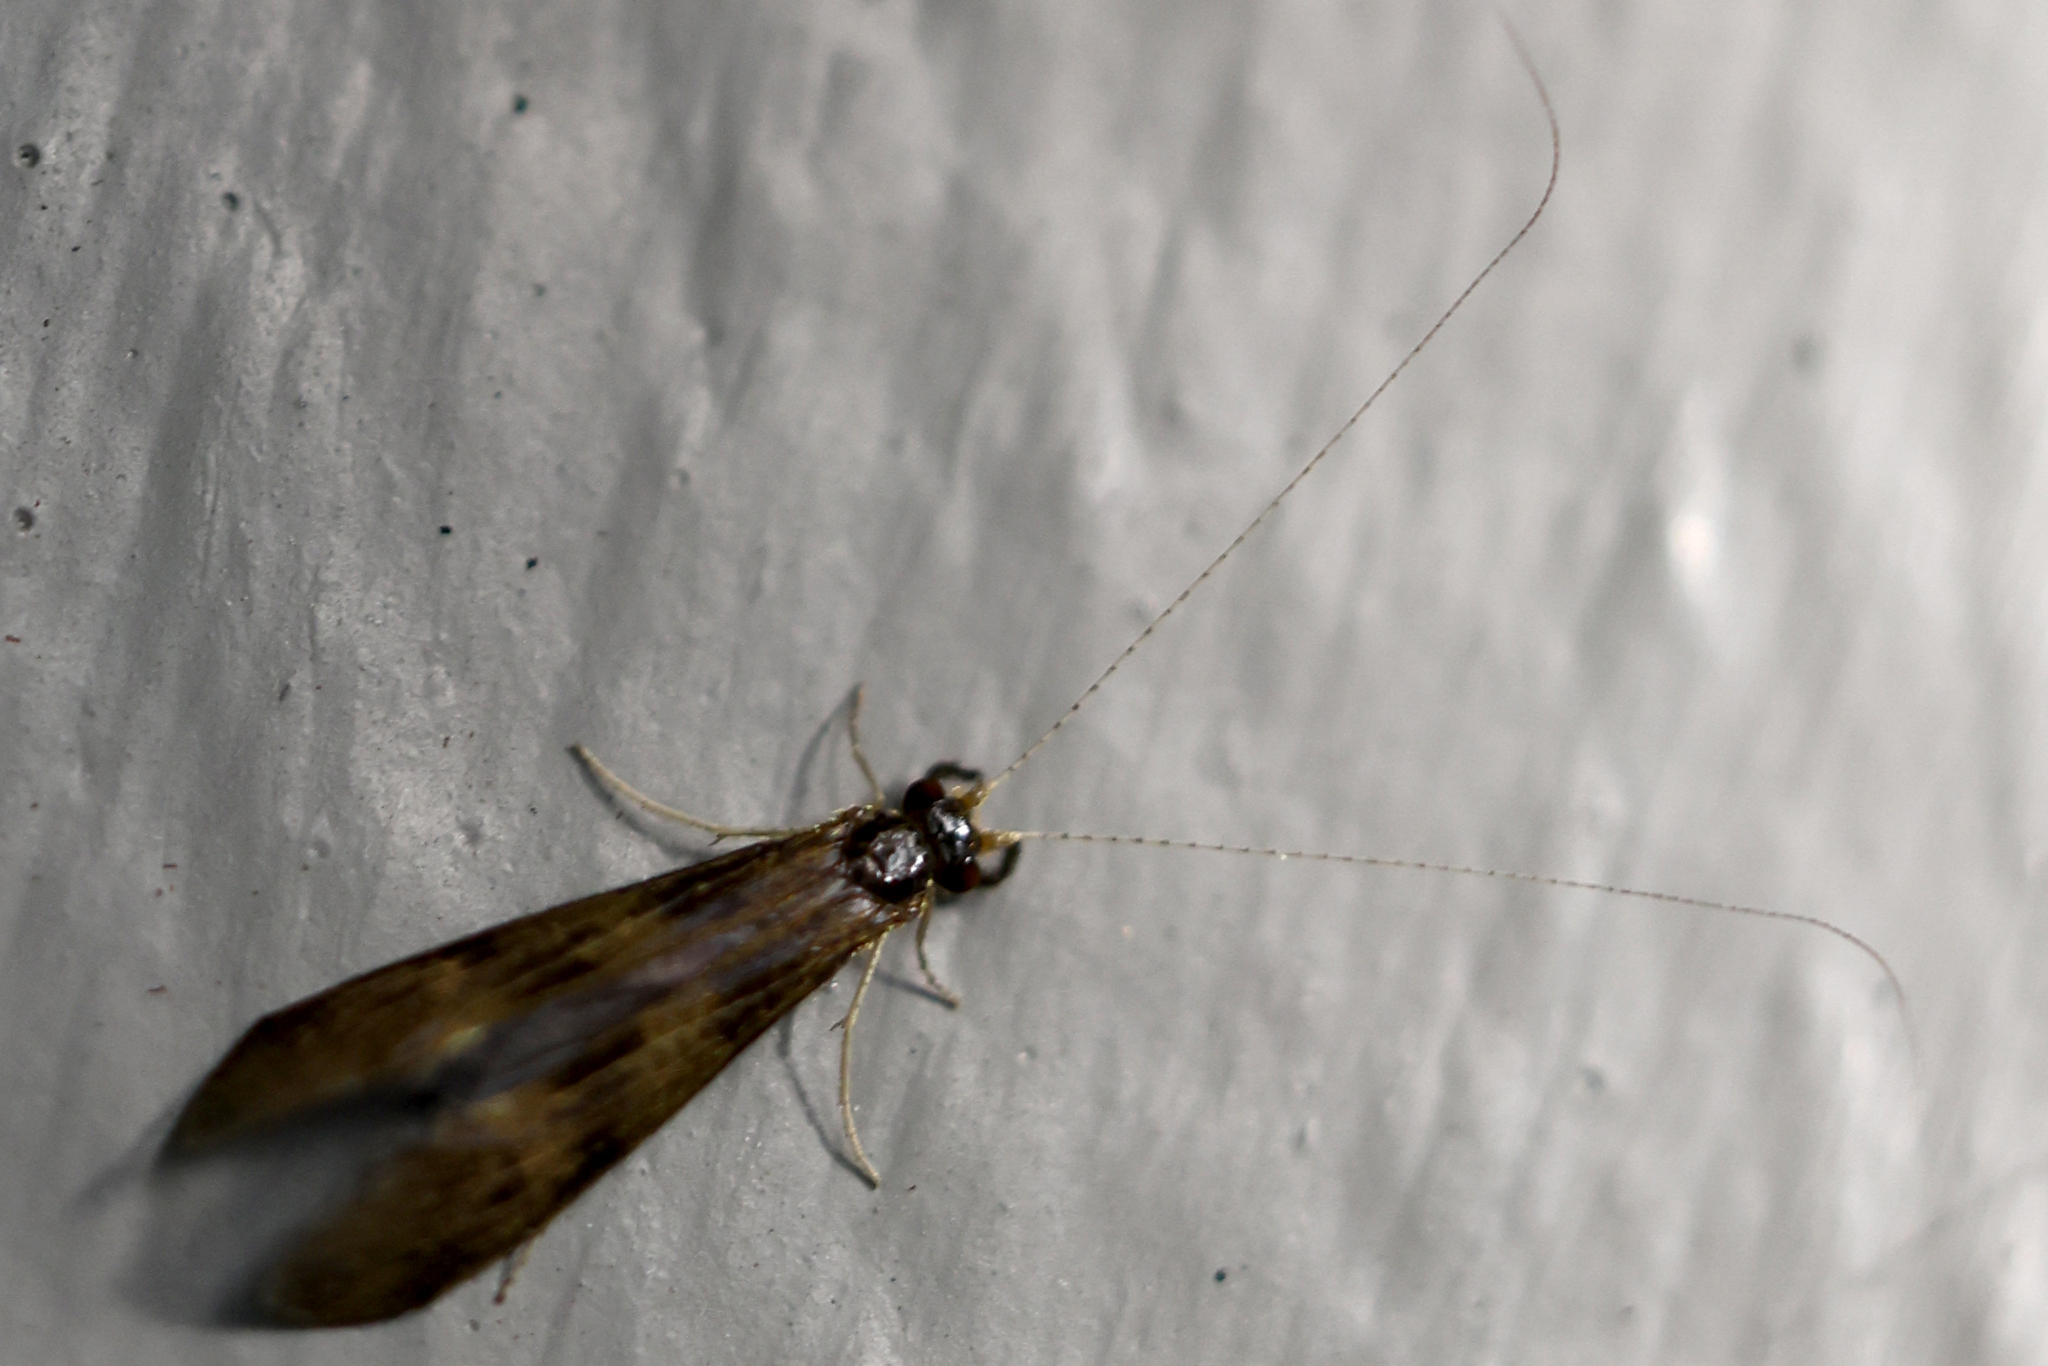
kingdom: Animalia
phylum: Arthropoda
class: Insecta
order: Trichoptera
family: Leptoceridae
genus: Mystacides
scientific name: Mystacides interjectus
